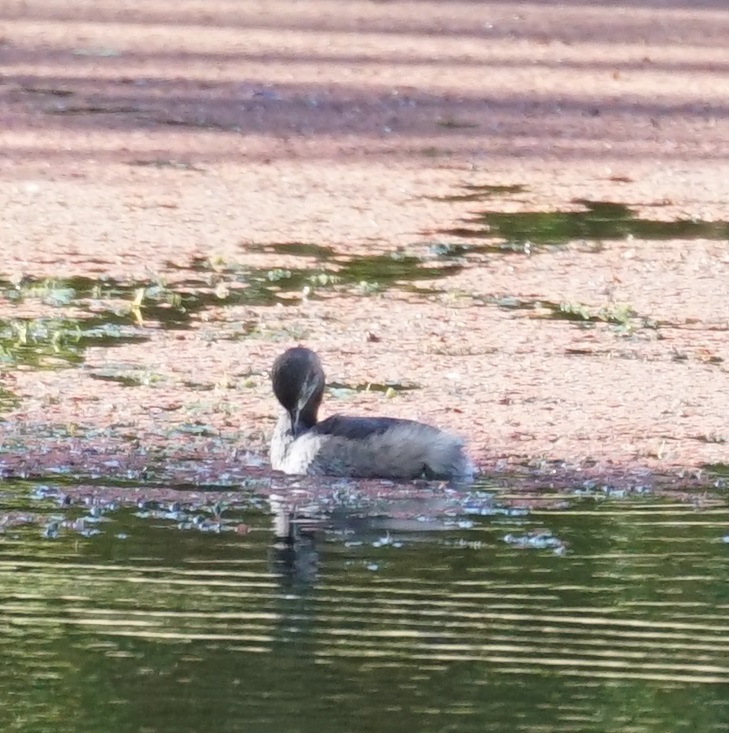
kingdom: Animalia
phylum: Chordata
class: Aves
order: Podicipediformes
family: Podicipedidae
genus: Tachybaptus
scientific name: Tachybaptus novaehollandiae
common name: Australasian grebe
